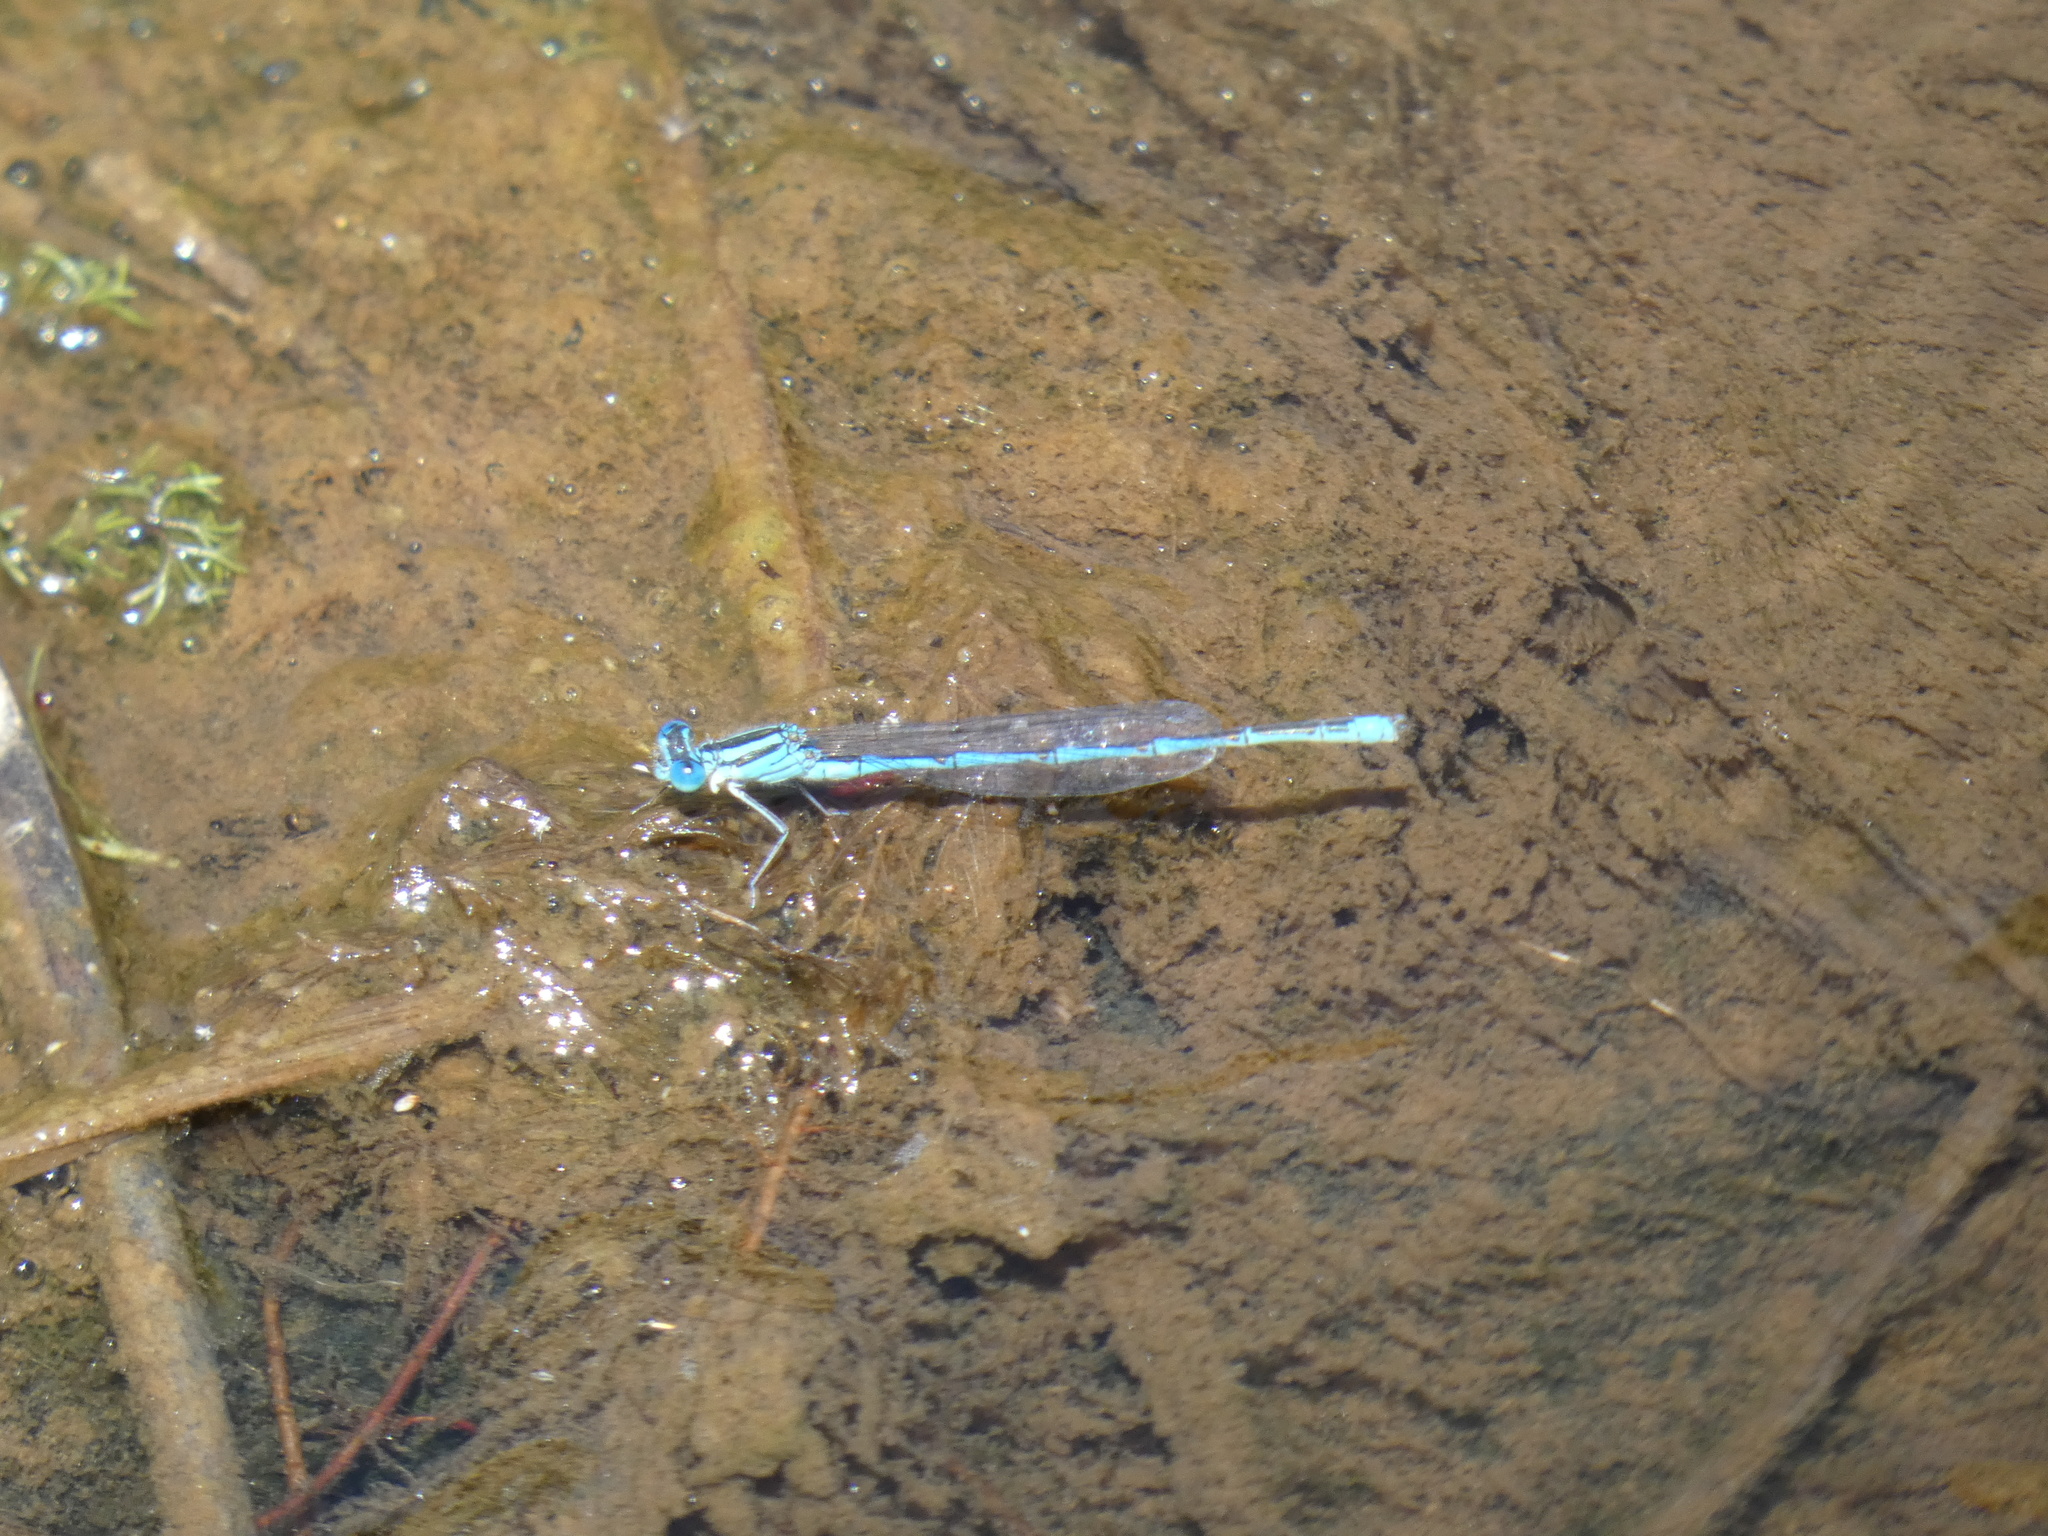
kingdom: Animalia
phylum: Arthropoda
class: Insecta
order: Odonata
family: Coenagrionidae
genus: Erythromma
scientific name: Erythromma lindenii
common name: Blue-eye
